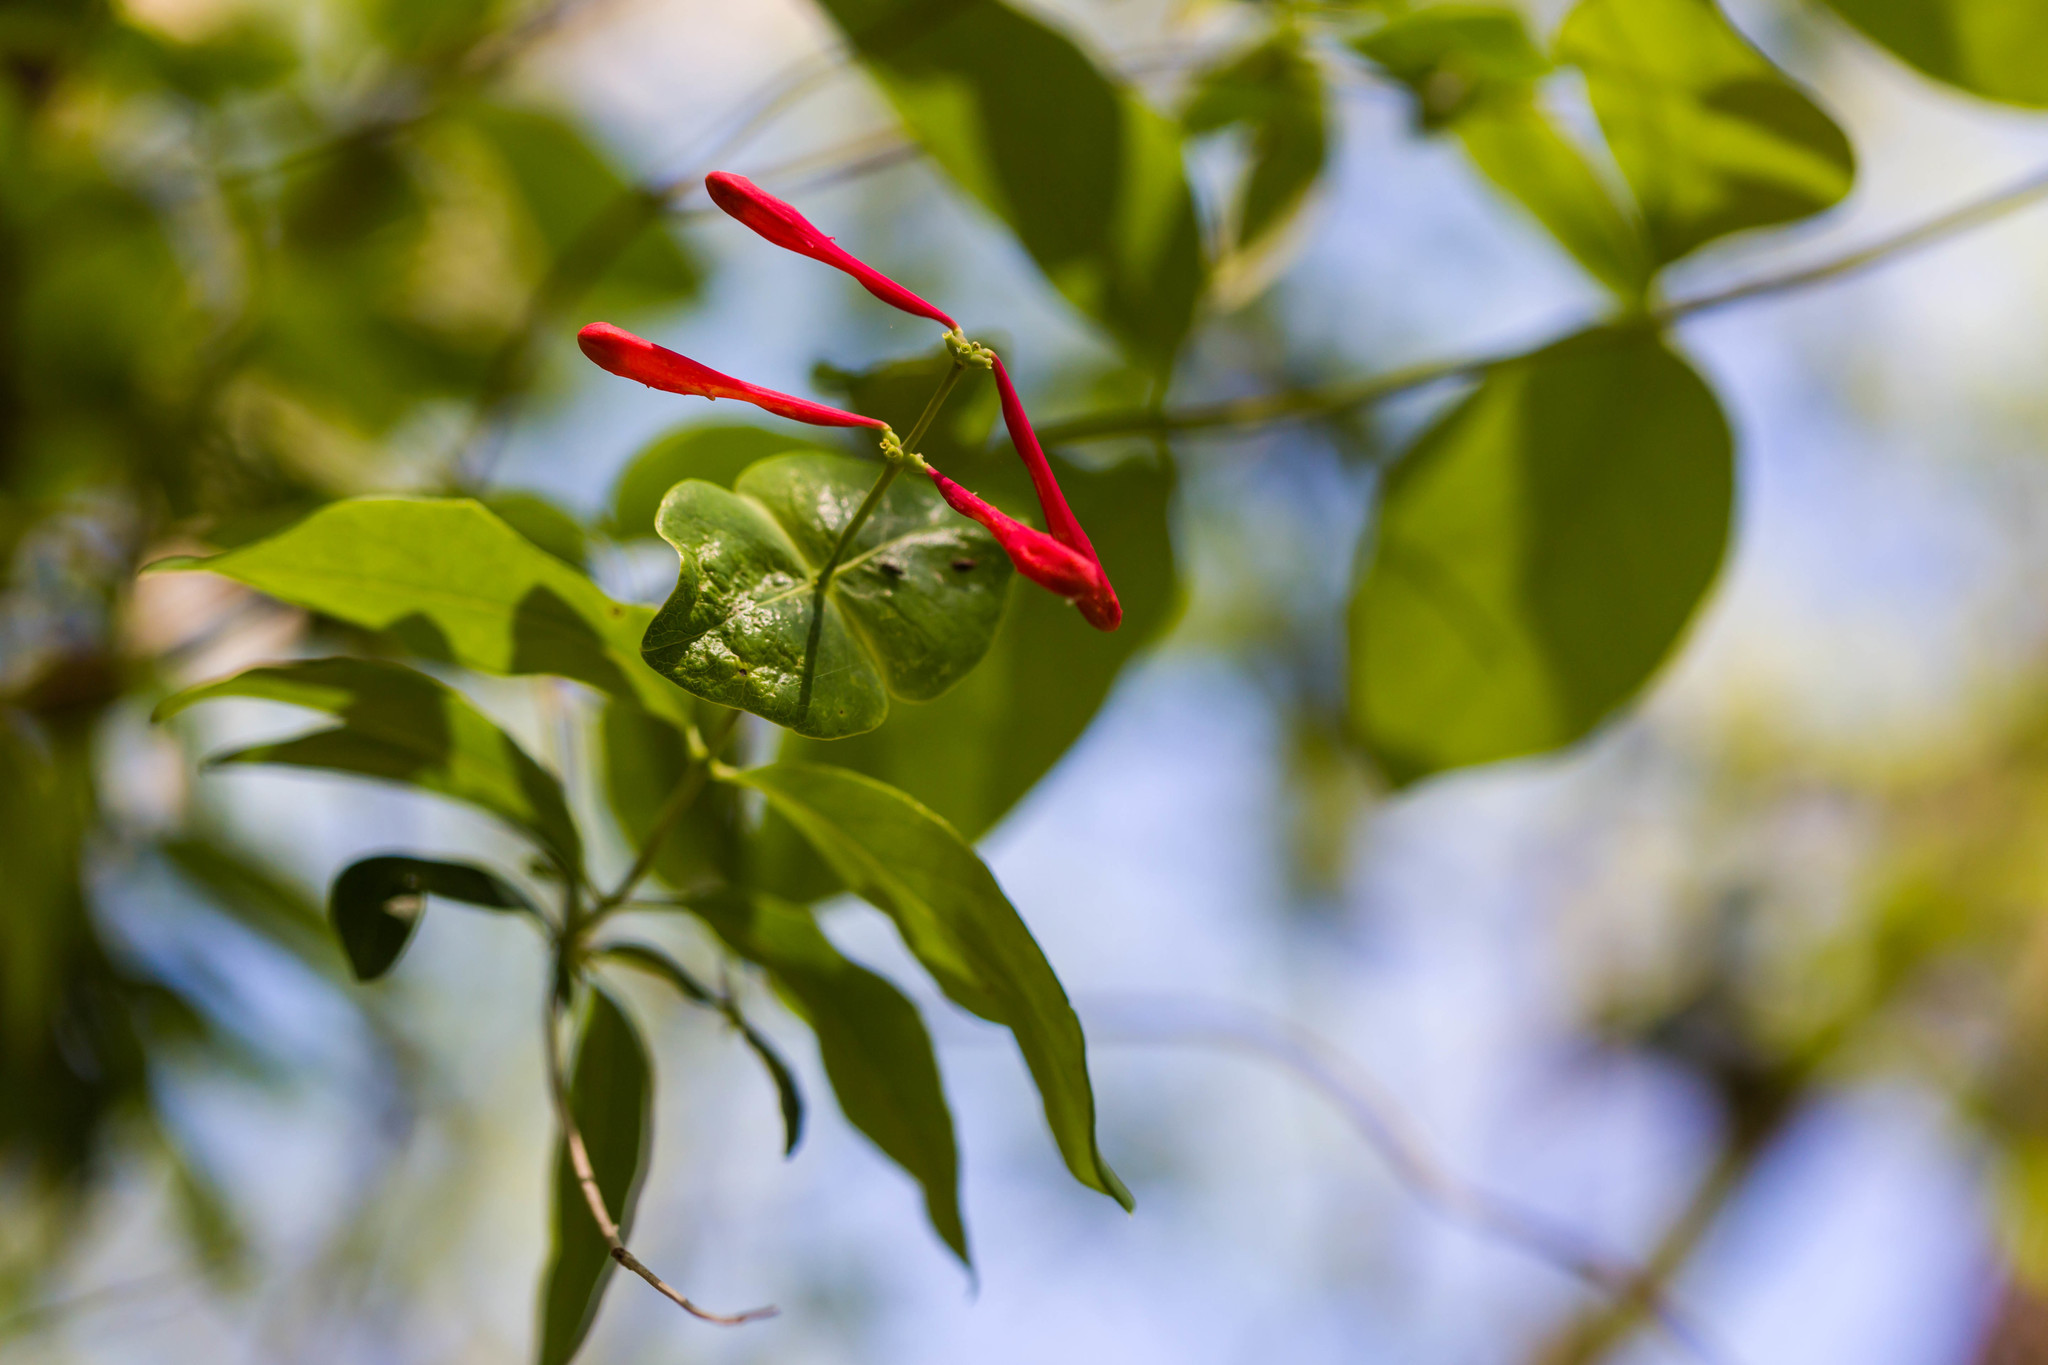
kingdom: Plantae
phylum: Tracheophyta
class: Magnoliopsida
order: Dipsacales
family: Caprifoliaceae
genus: Lonicera
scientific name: Lonicera sempervirens
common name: Coral honeysuckle
